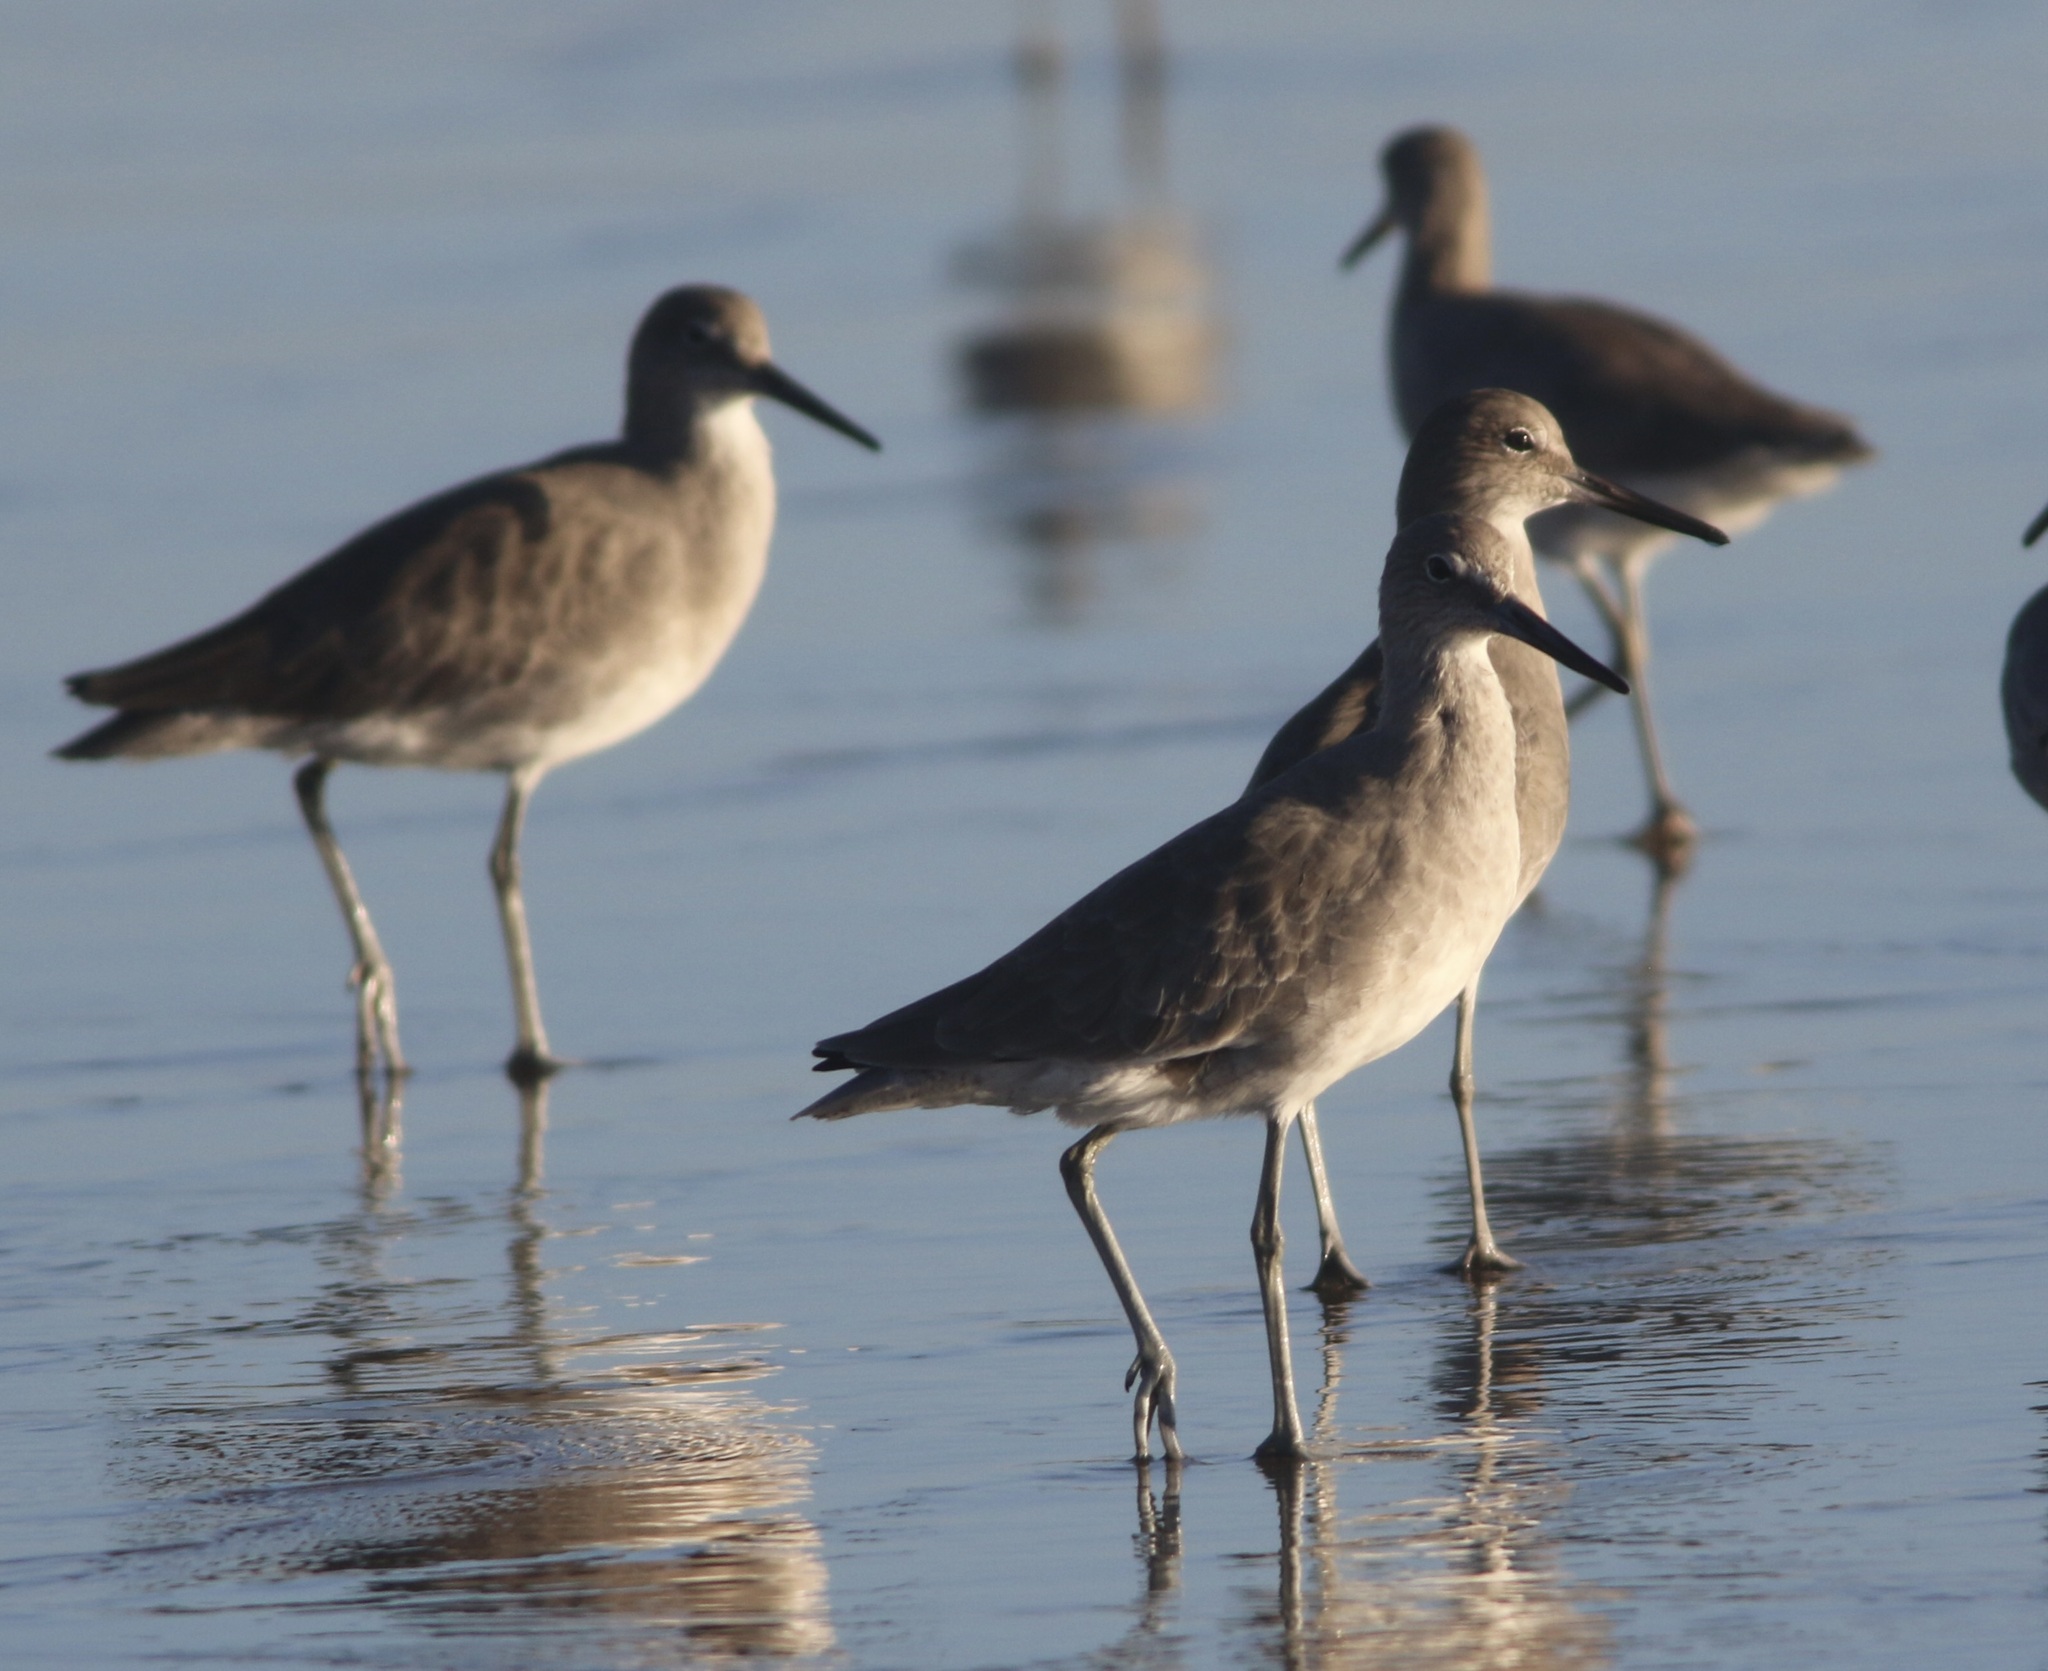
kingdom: Animalia
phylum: Chordata
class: Aves
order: Charadriiformes
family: Scolopacidae
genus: Tringa
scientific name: Tringa semipalmata
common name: Willet
